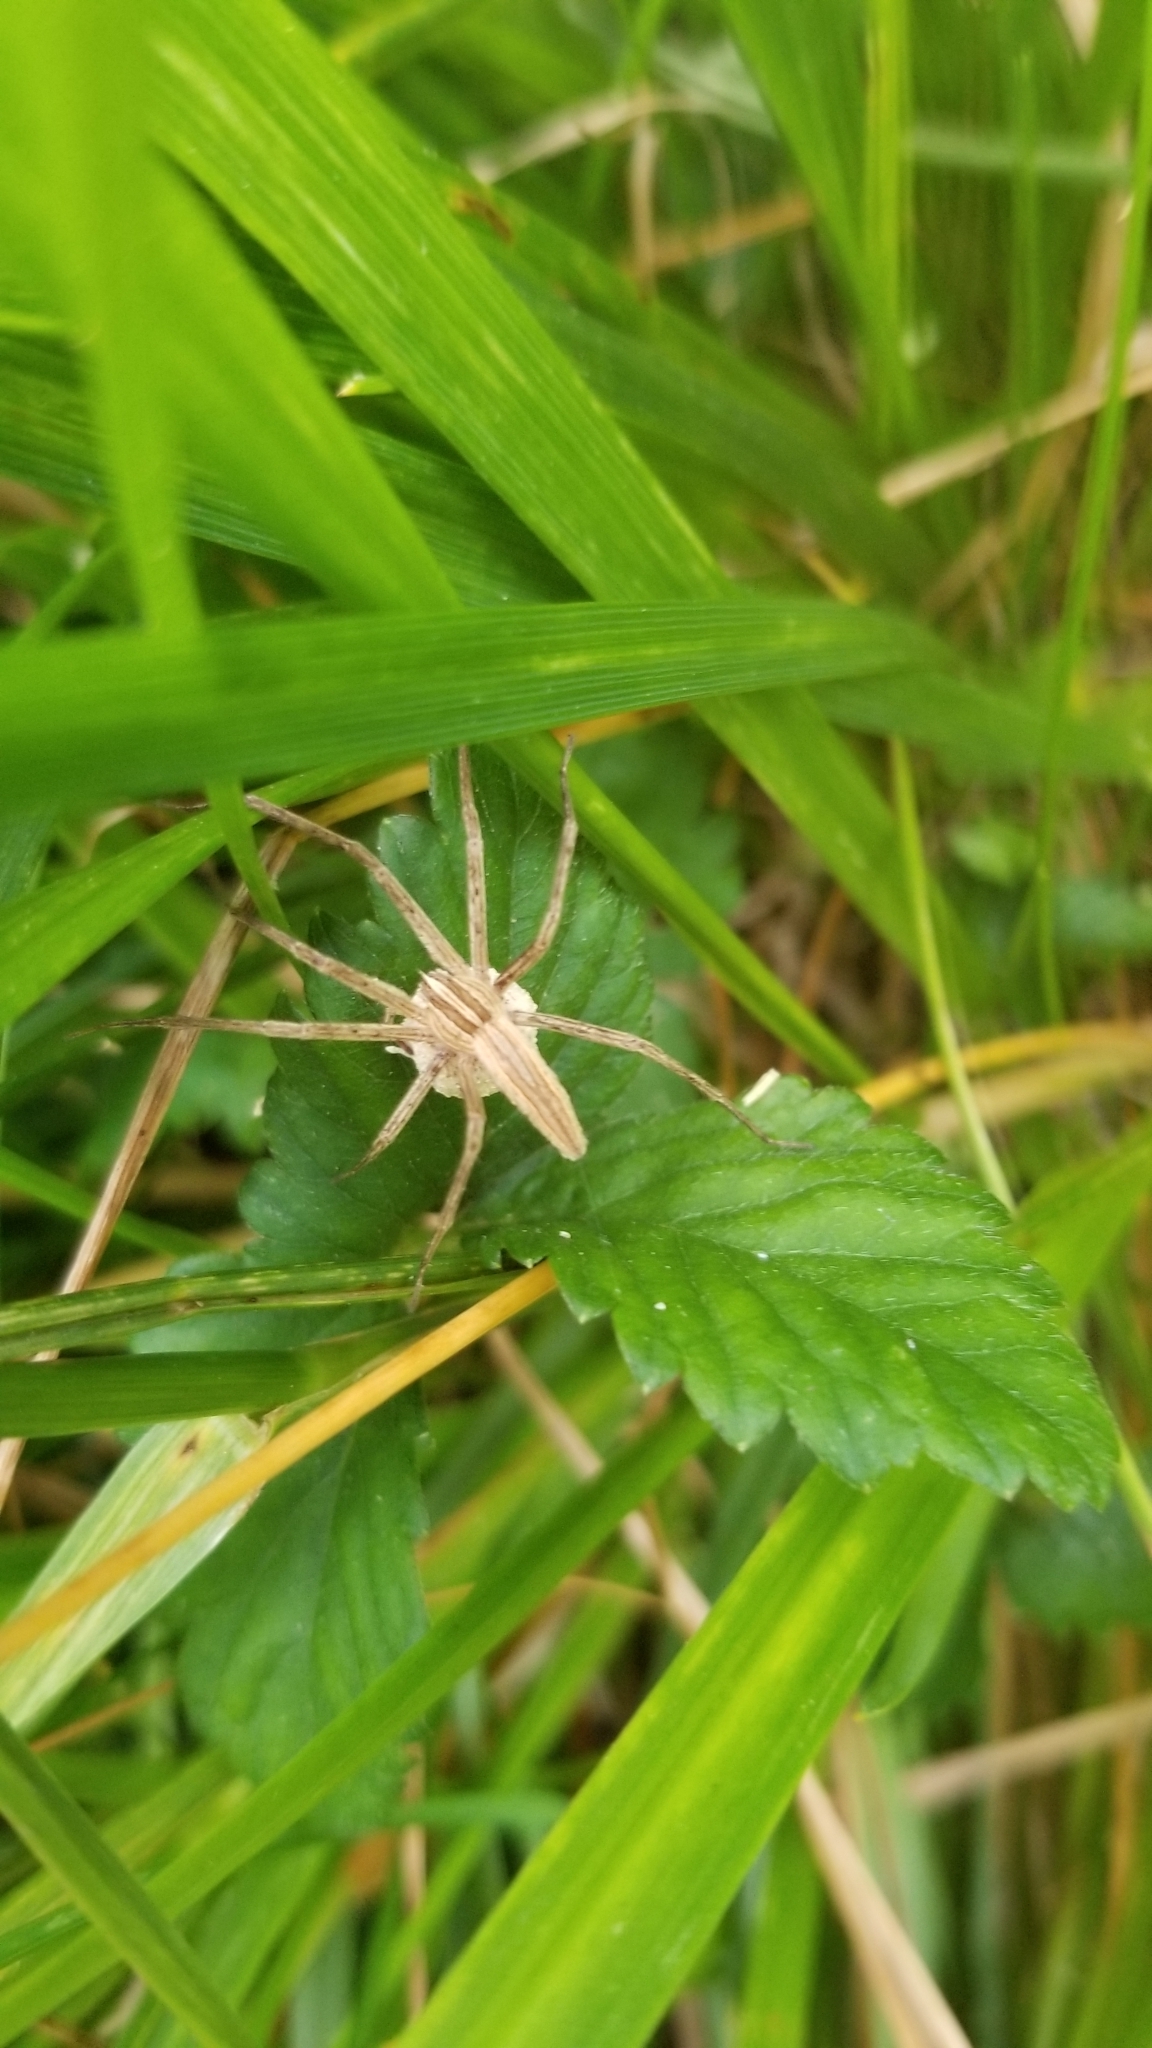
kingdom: Animalia
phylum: Arthropoda
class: Arachnida
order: Araneae
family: Pisauridae
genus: Pisaurina
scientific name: Pisaurina dubia
